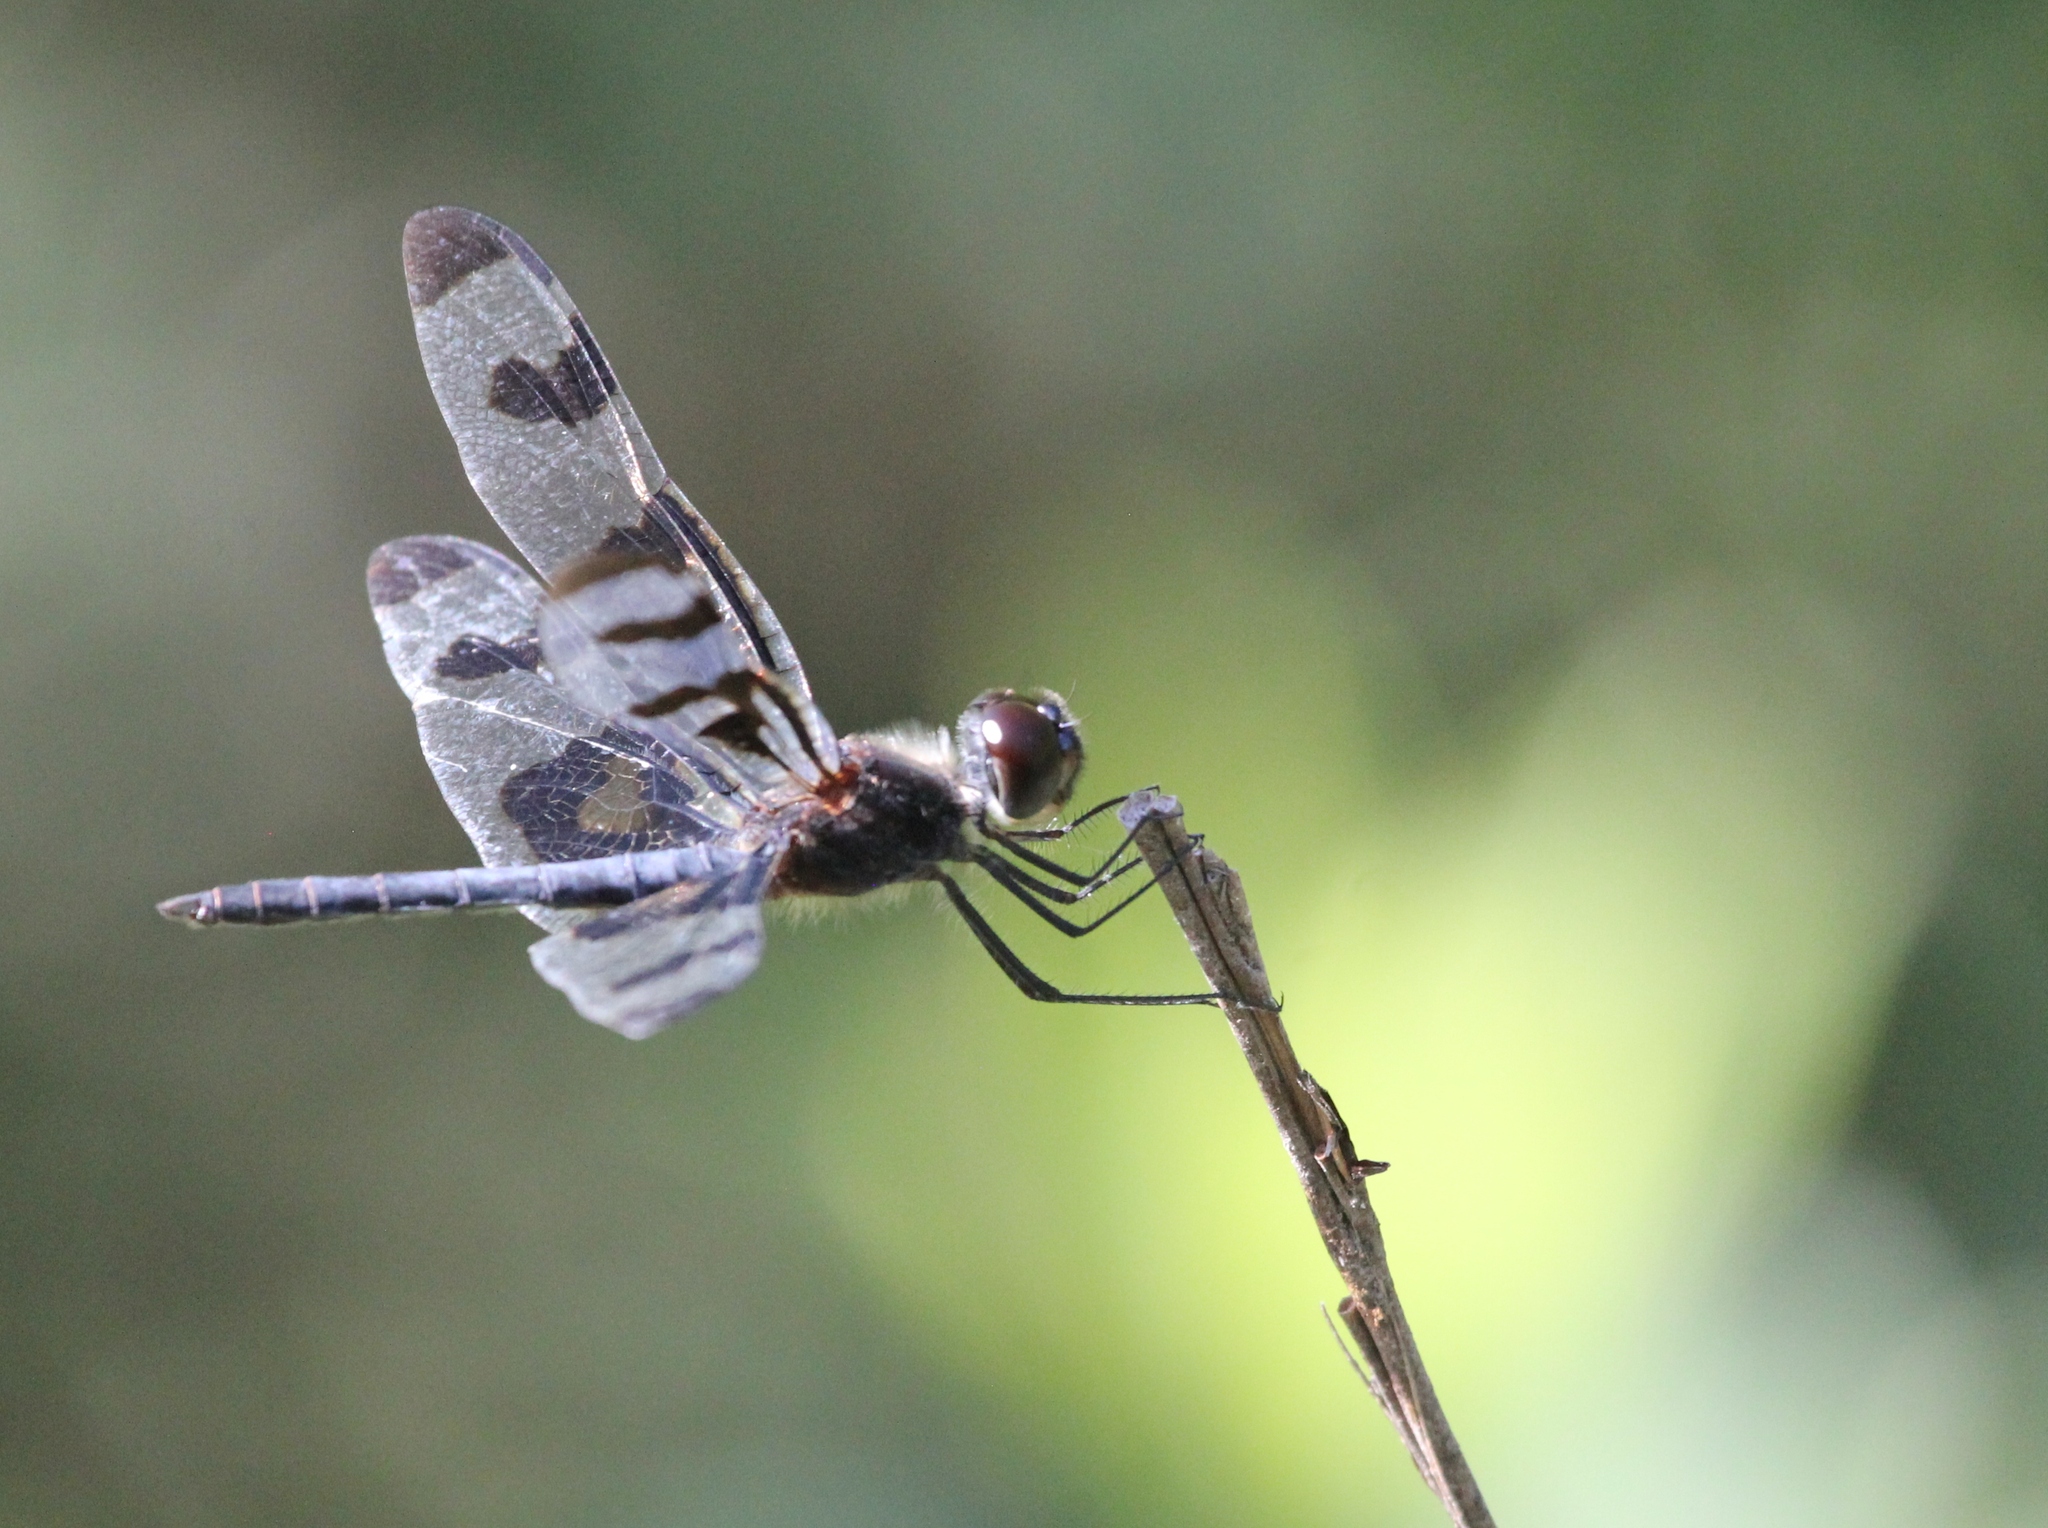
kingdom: Animalia
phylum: Arthropoda
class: Insecta
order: Odonata
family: Libellulidae
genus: Celithemis
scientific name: Celithemis fasciata
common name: Banded pennant
